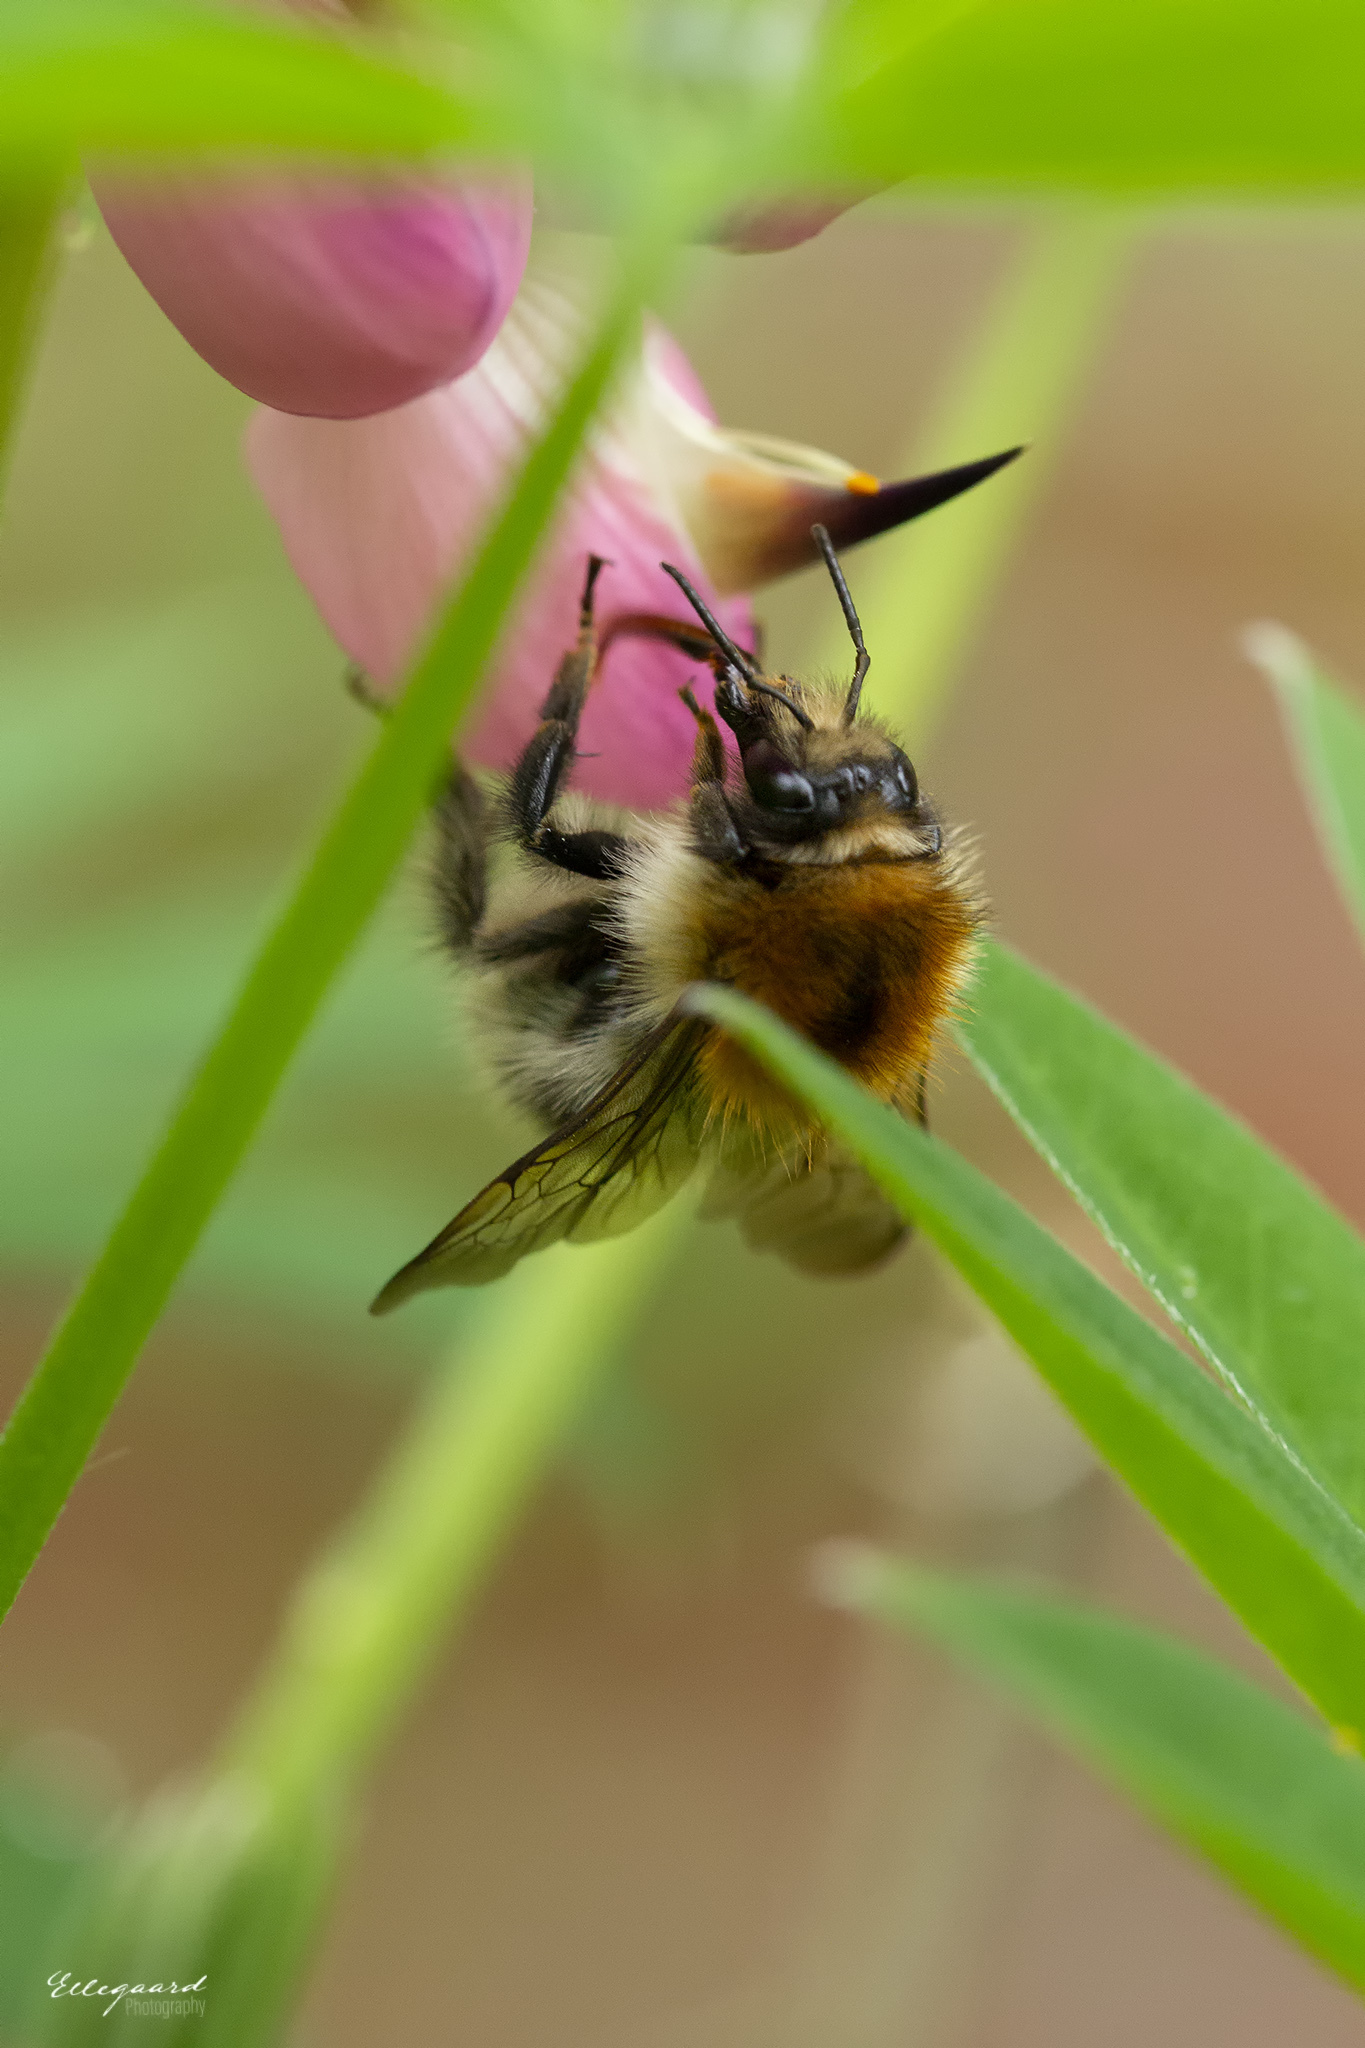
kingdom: Animalia
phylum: Arthropoda
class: Insecta
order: Hymenoptera
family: Apidae
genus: Bombus
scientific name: Bombus pascuorum
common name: Common carder bee
